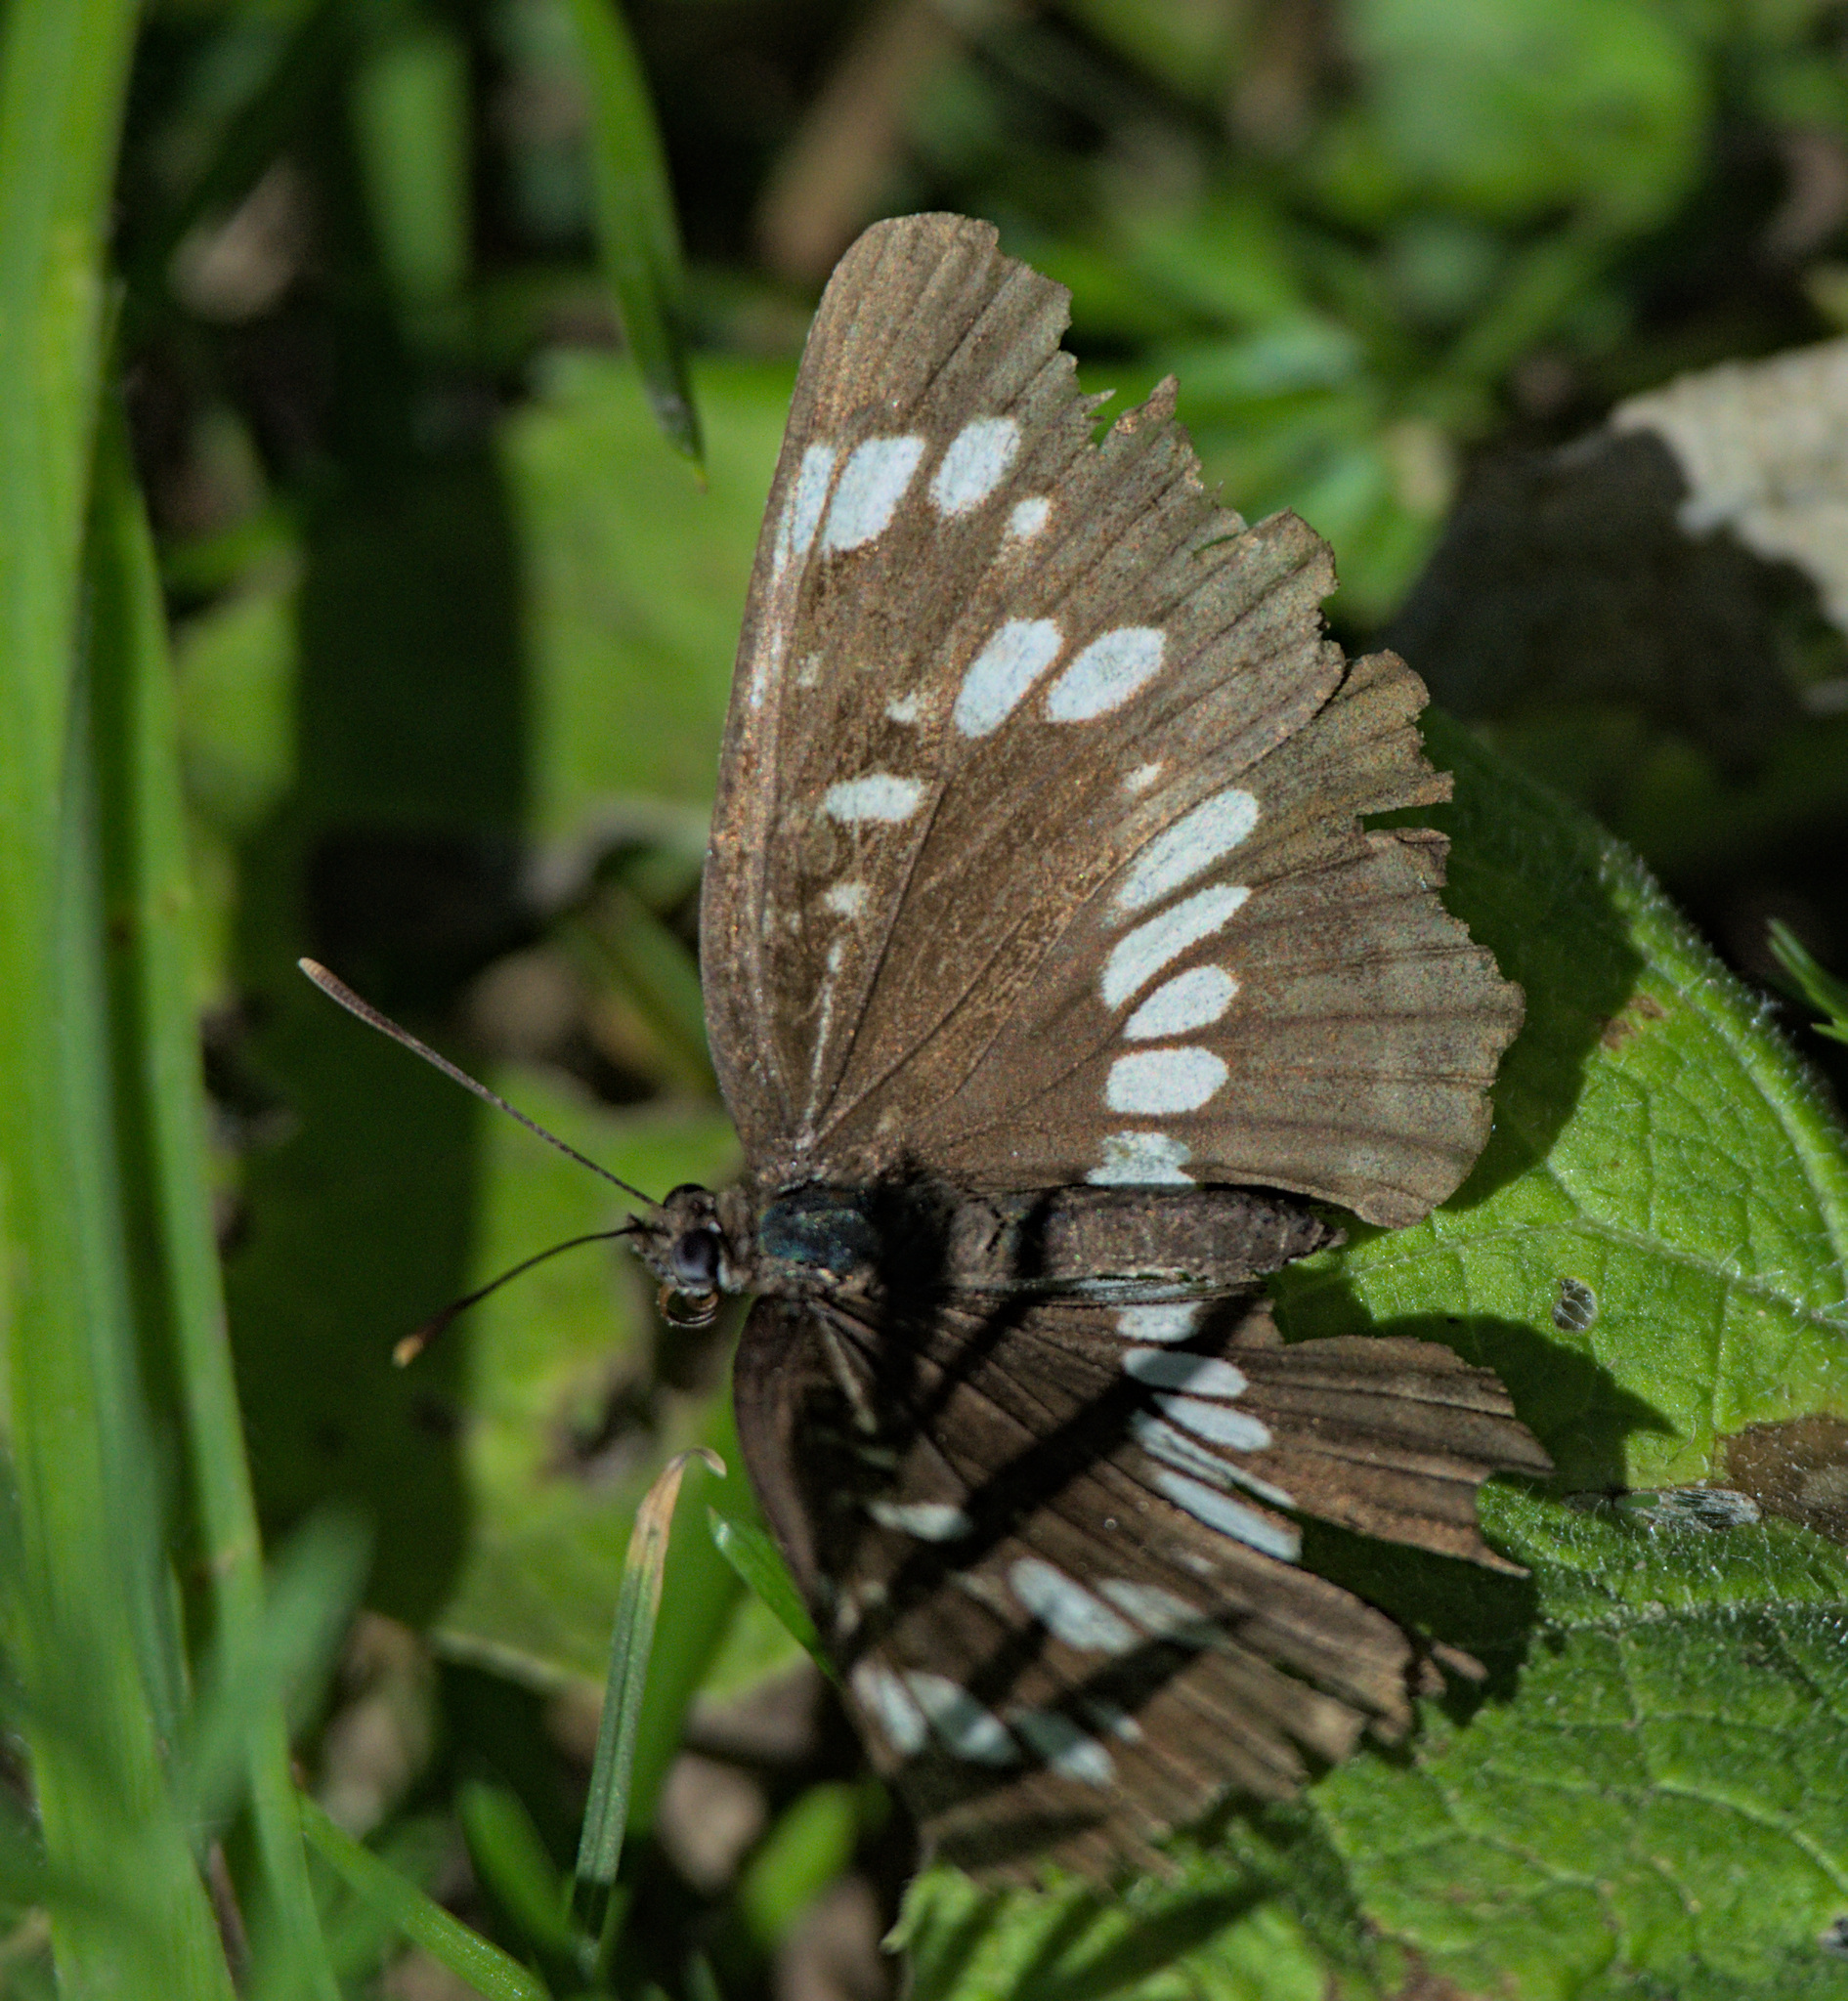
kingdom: Animalia
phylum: Arthropoda
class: Insecta
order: Lepidoptera
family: Nymphalidae
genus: Neptis
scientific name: Neptis rivularis
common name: Hungarian glider
